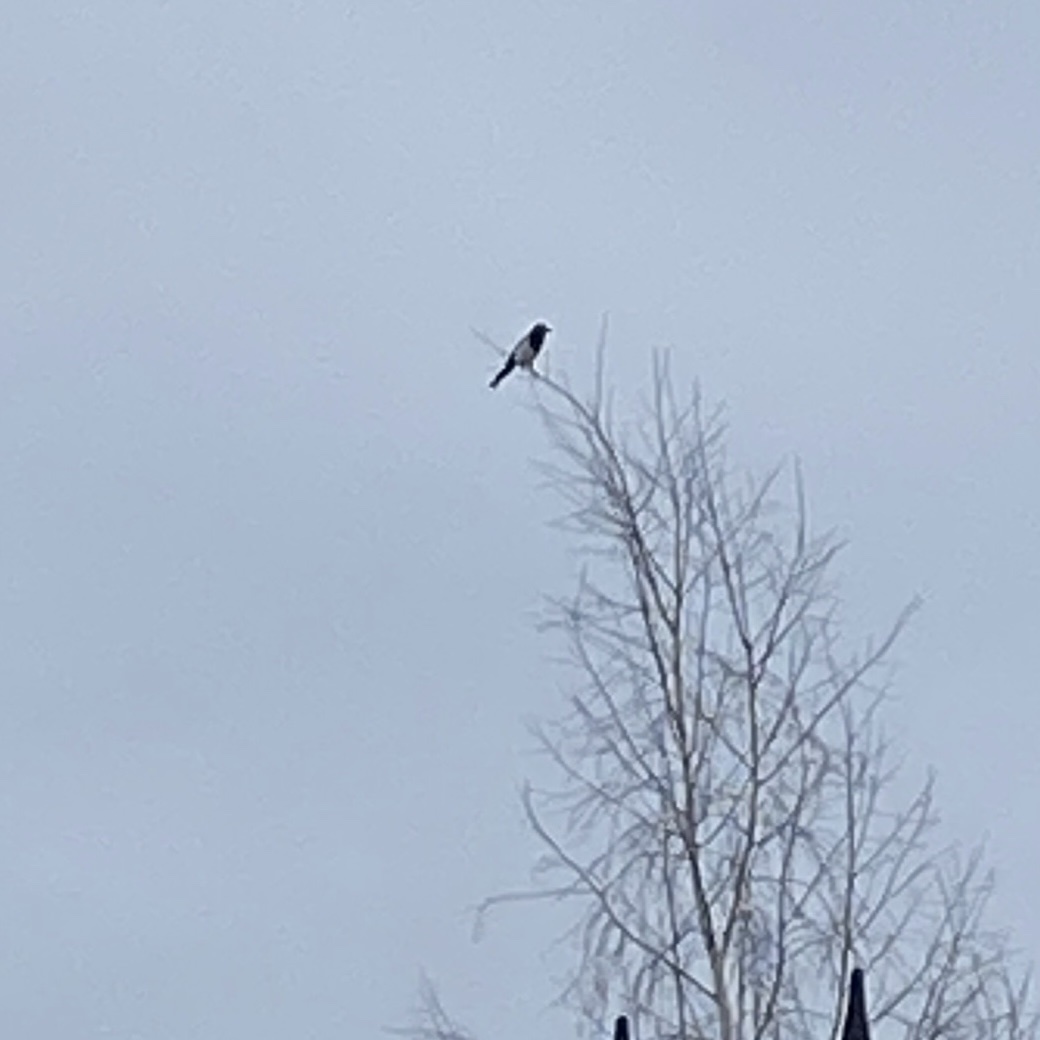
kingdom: Animalia
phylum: Chordata
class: Aves
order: Passeriformes
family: Corvidae
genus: Pica
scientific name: Pica pica
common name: Eurasian magpie
